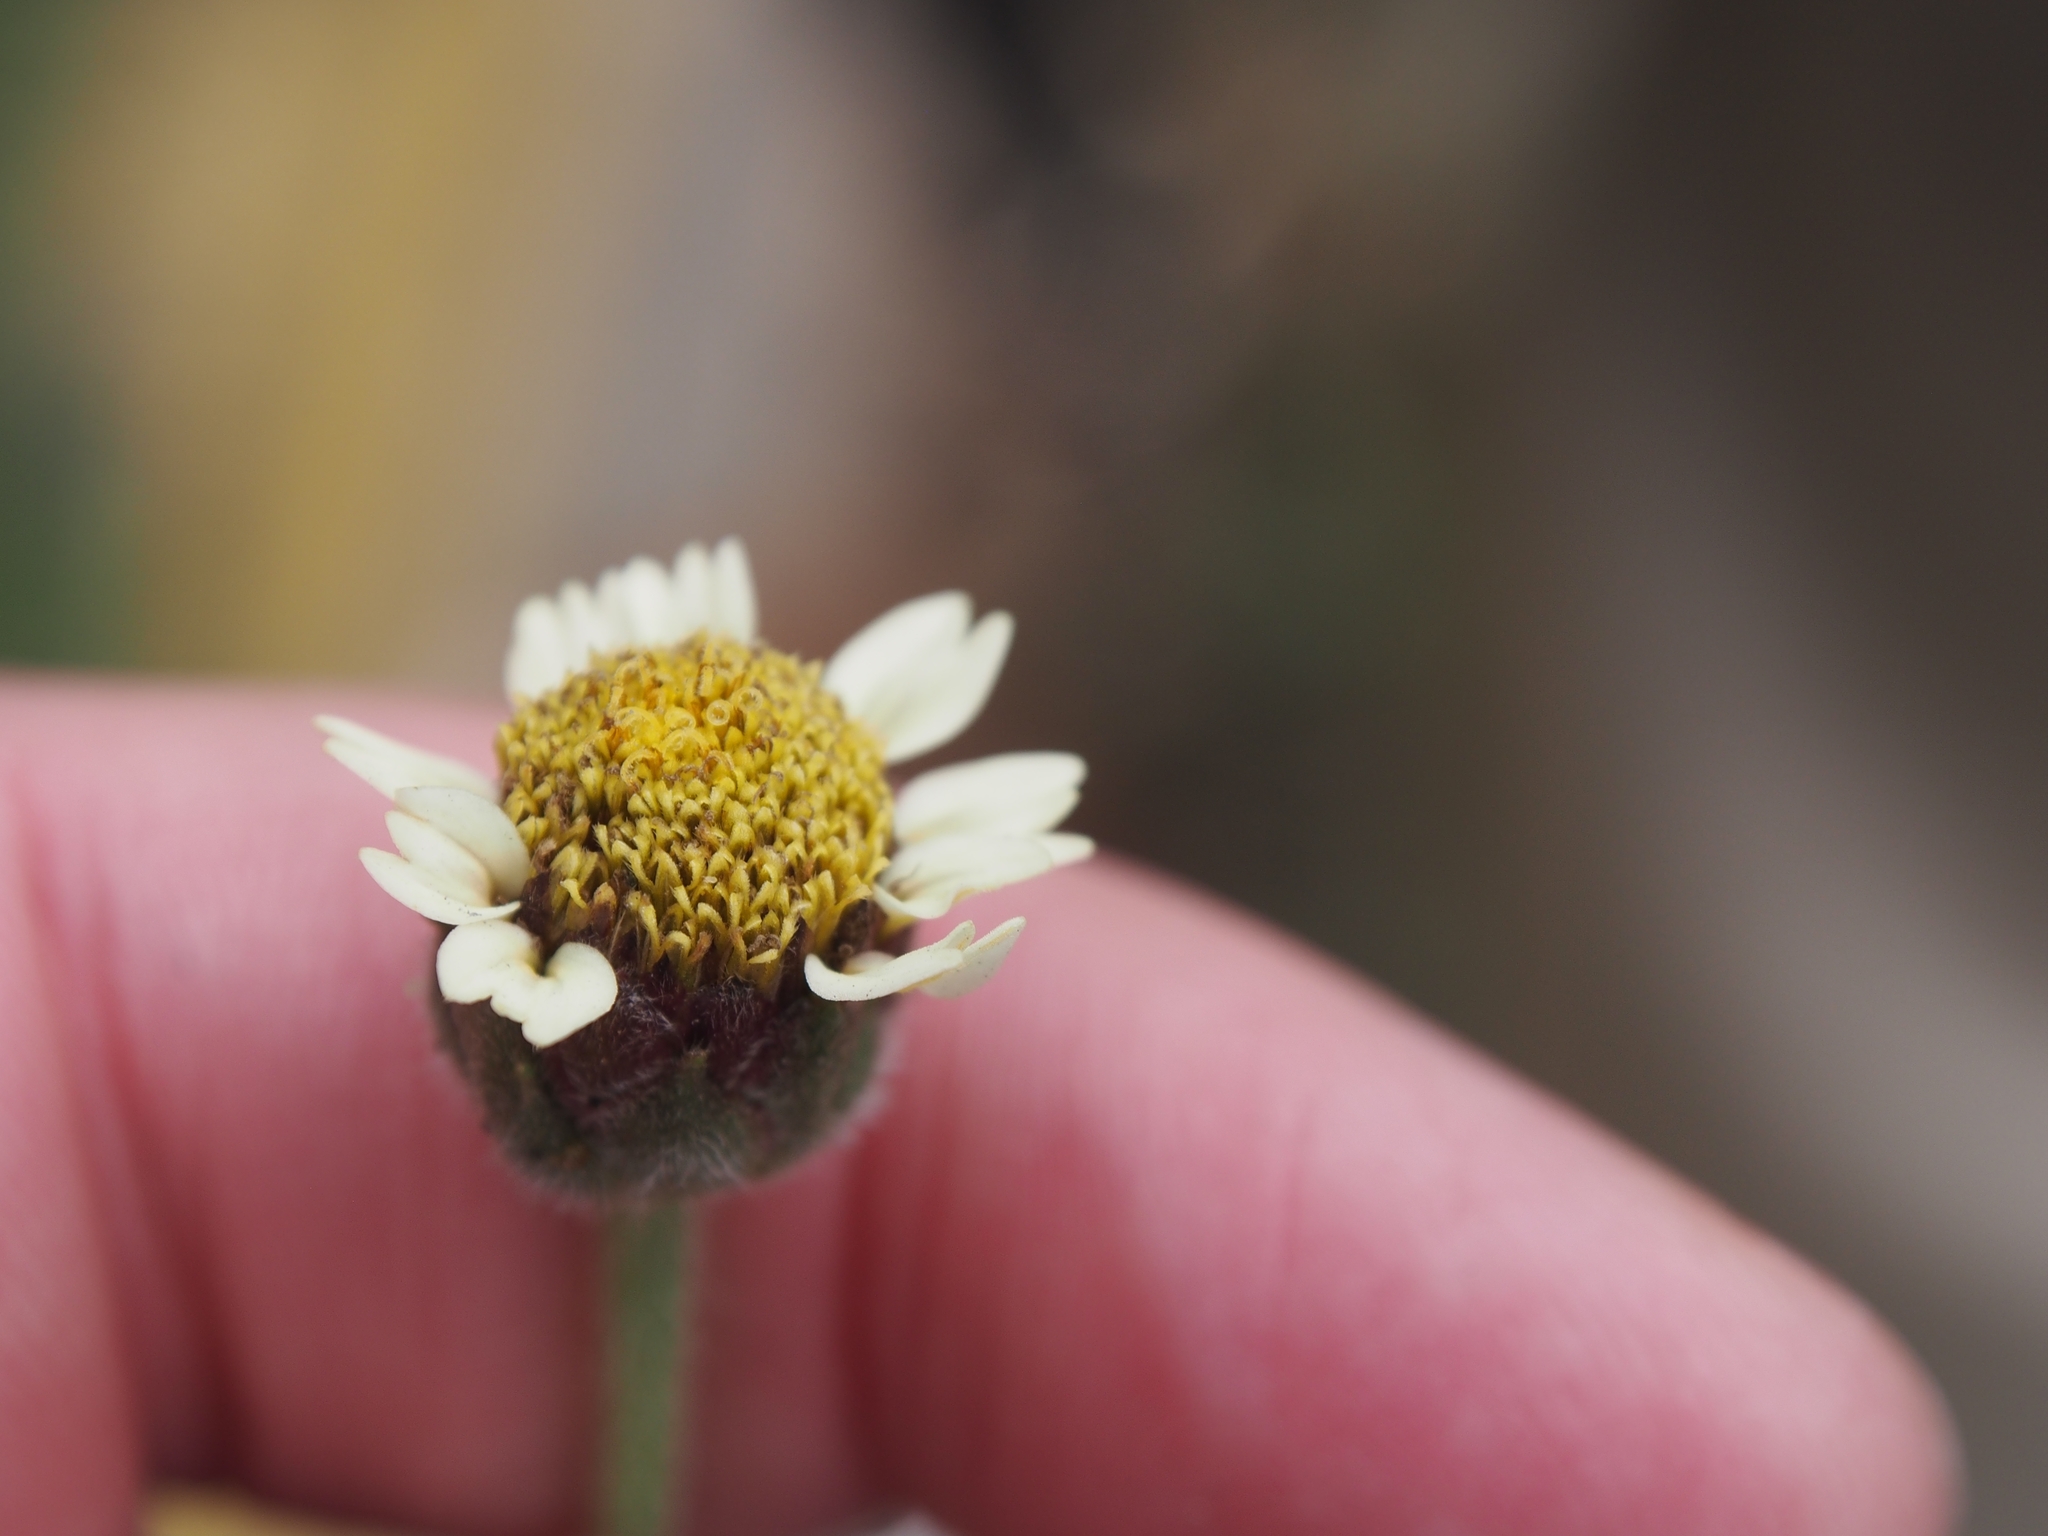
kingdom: Plantae
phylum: Tracheophyta
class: Magnoliopsida
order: Asterales
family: Asteraceae
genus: Tridax
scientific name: Tridax procumbens
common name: Coatbuttons
